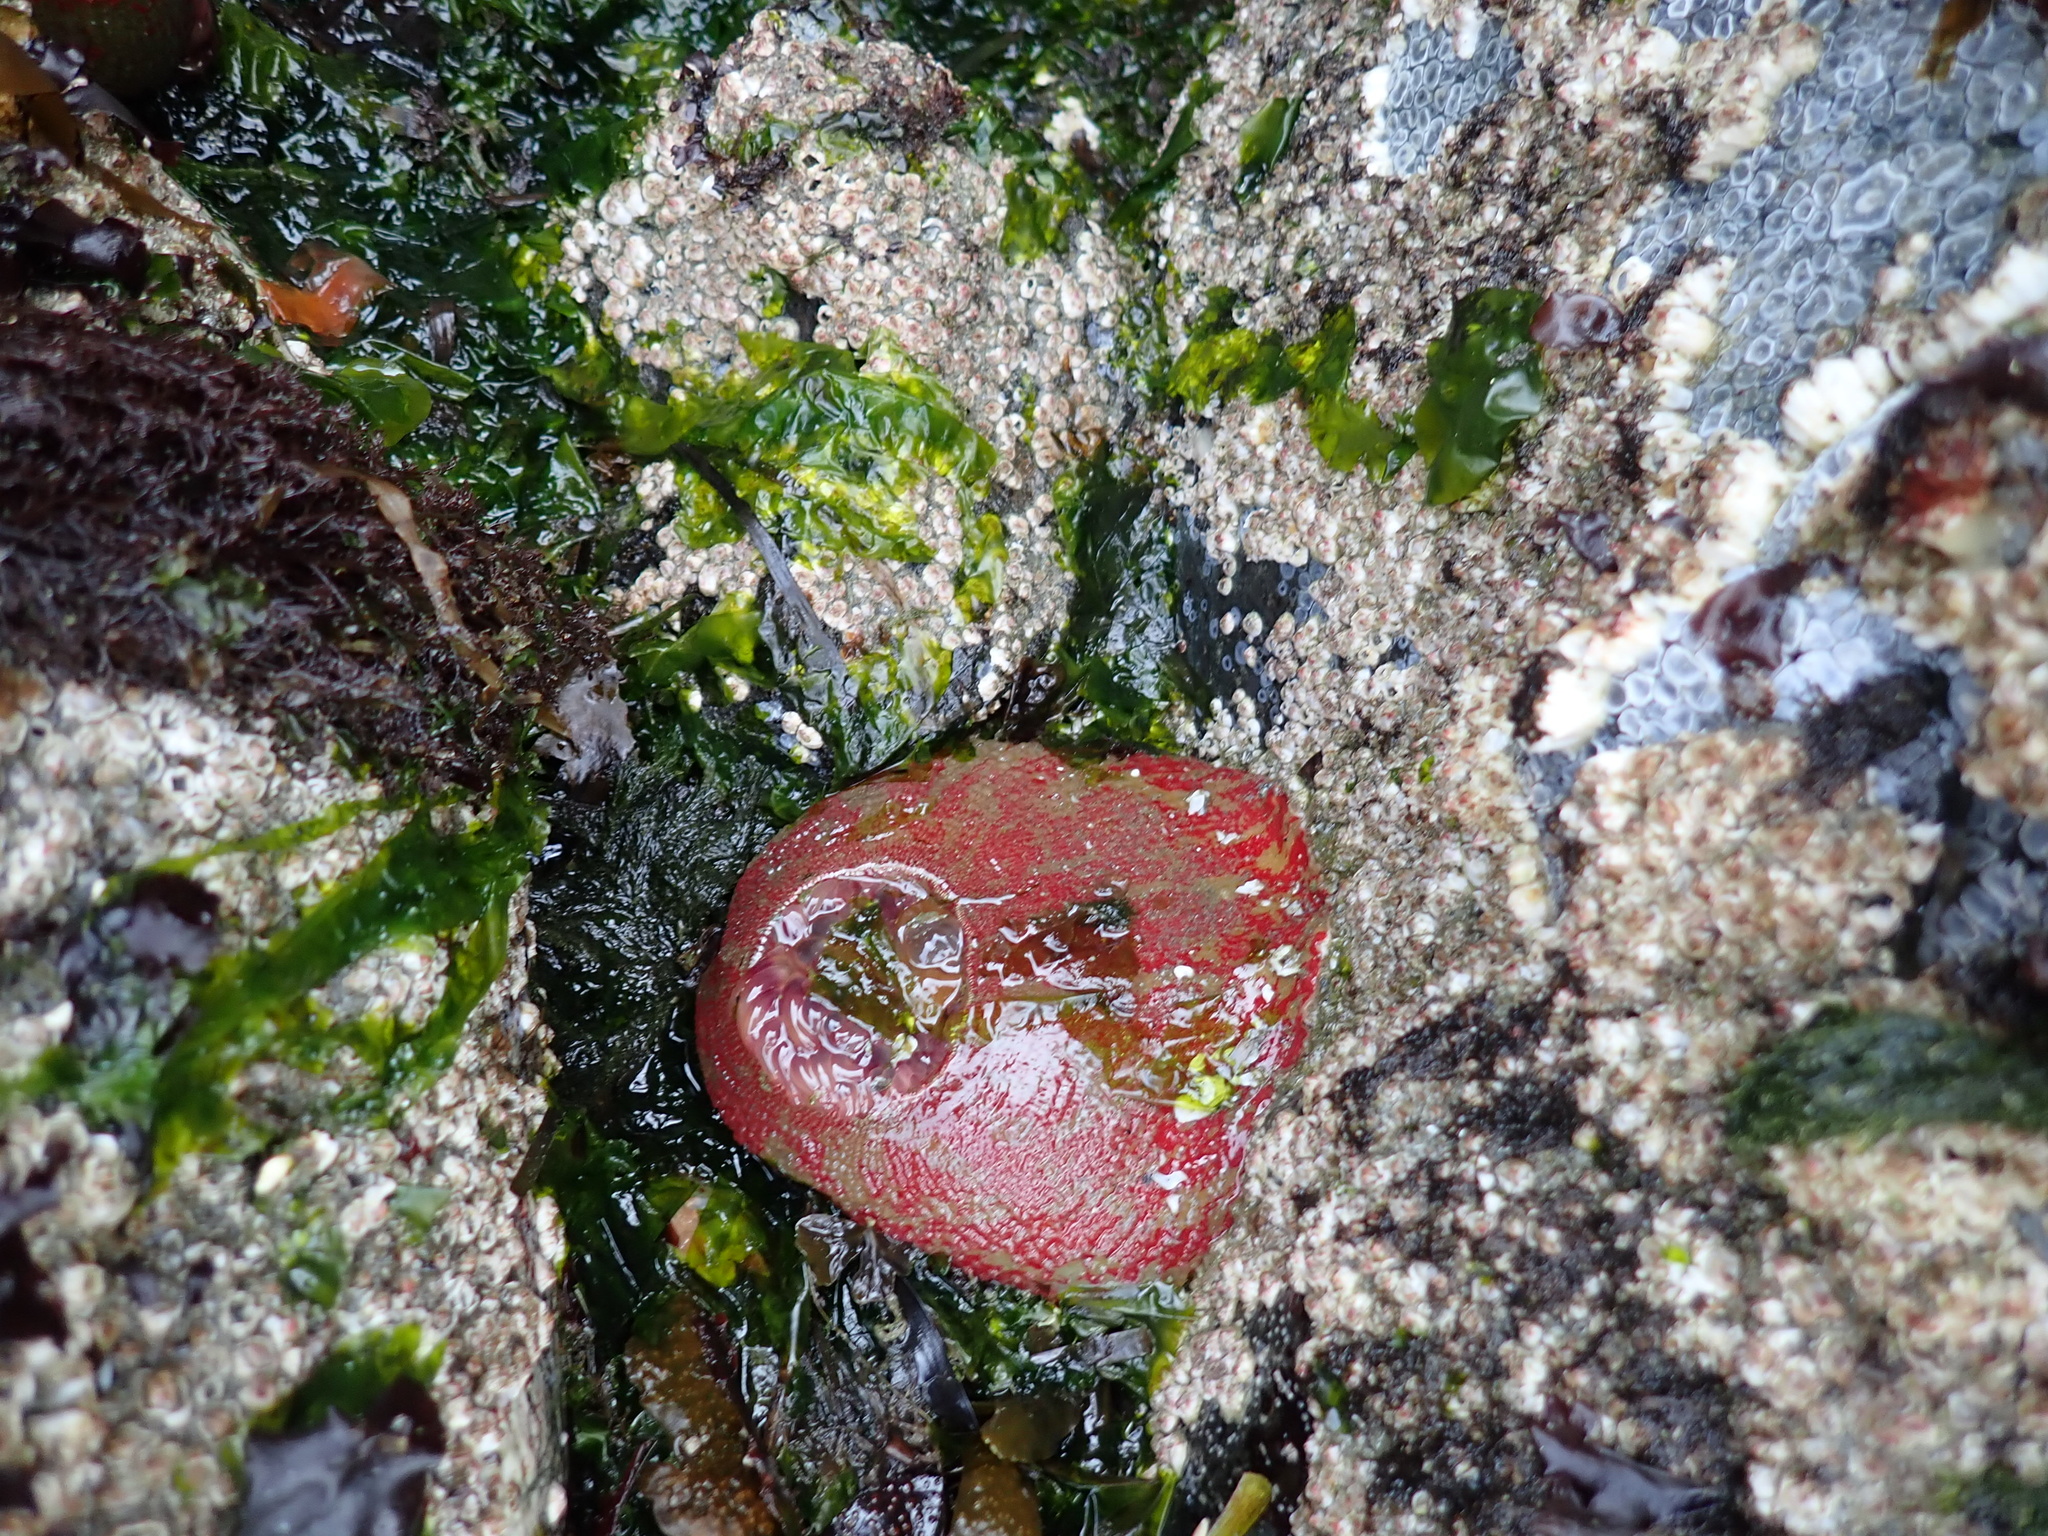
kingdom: Animalia
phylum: Cnidaria
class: Anthozoa
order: Actiniaria
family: Actiniidae
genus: Urticina
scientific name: Urticina grebelnyi
